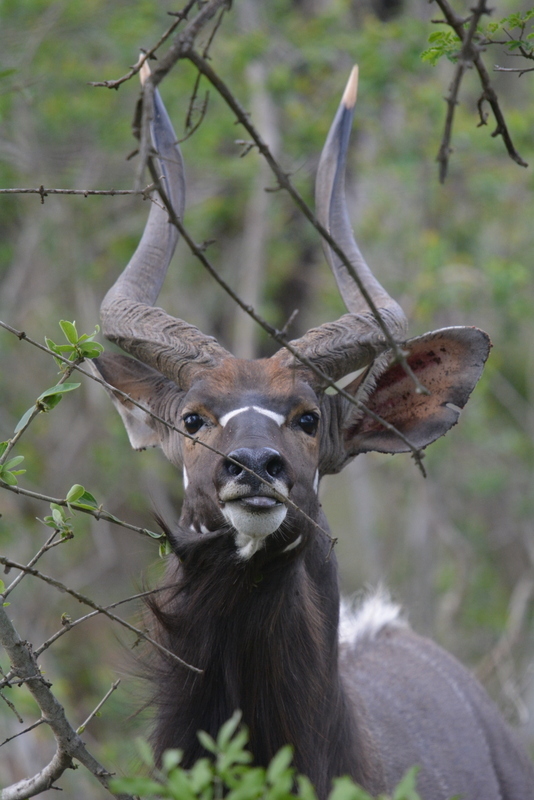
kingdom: Animalia
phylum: Chordata
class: Mammalia
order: Artiodactyla
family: Bovidae
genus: Tragelaphus
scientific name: Tragelaphus angasii
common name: Nyala
